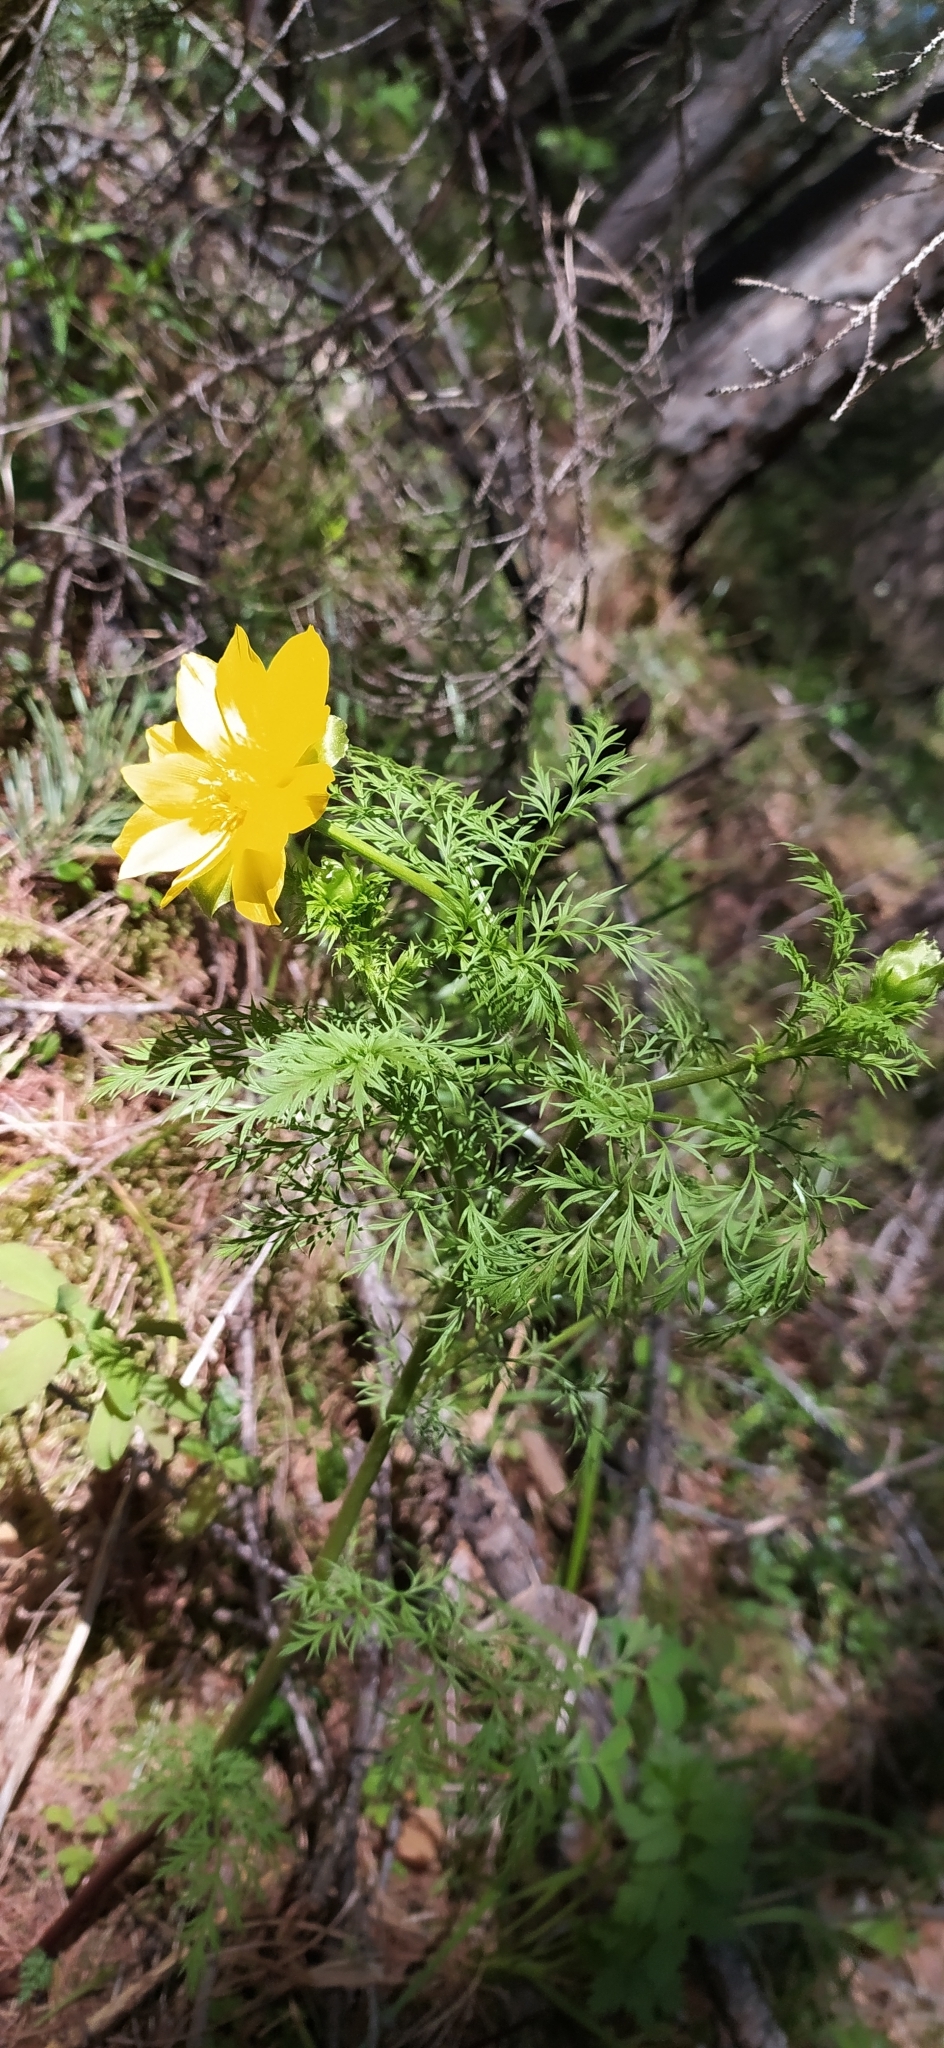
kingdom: Plantae
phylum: Tracheophyta
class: Magnoliopsida
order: Ranunculales
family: Ranunculaceae
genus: Adonis
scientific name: Adonis
